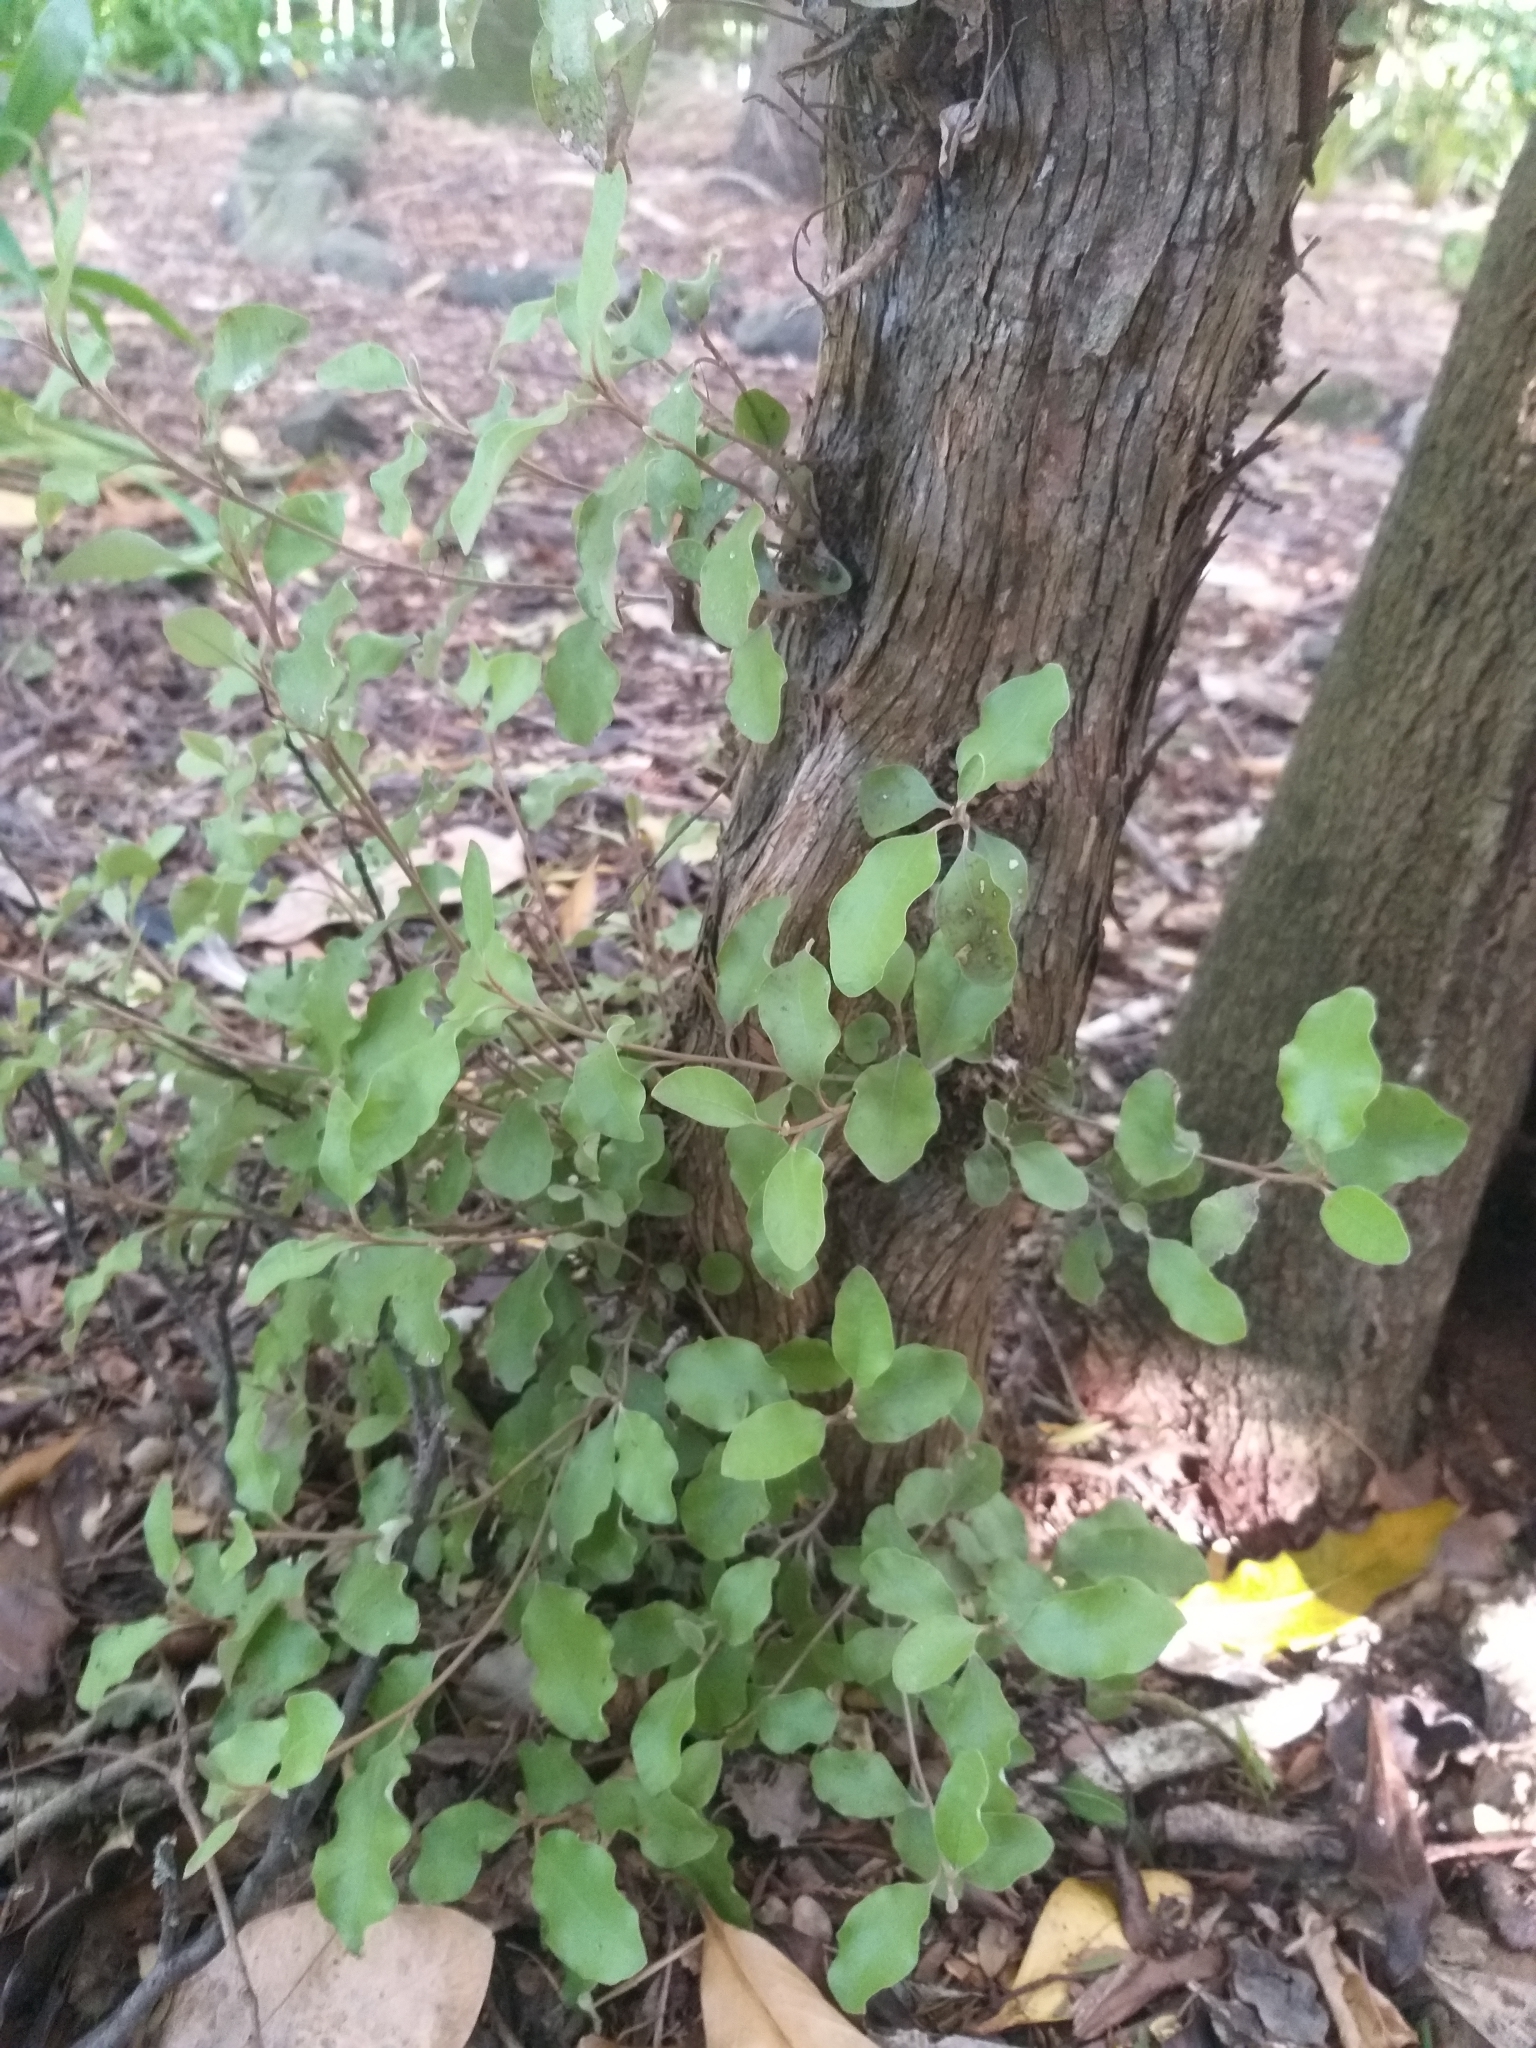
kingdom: Plantae
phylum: Tracheophyta
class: Magnoliopsida
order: Asterales
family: Asteraceae
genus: Olearia
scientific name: Olearia paniculata
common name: Akiraho
